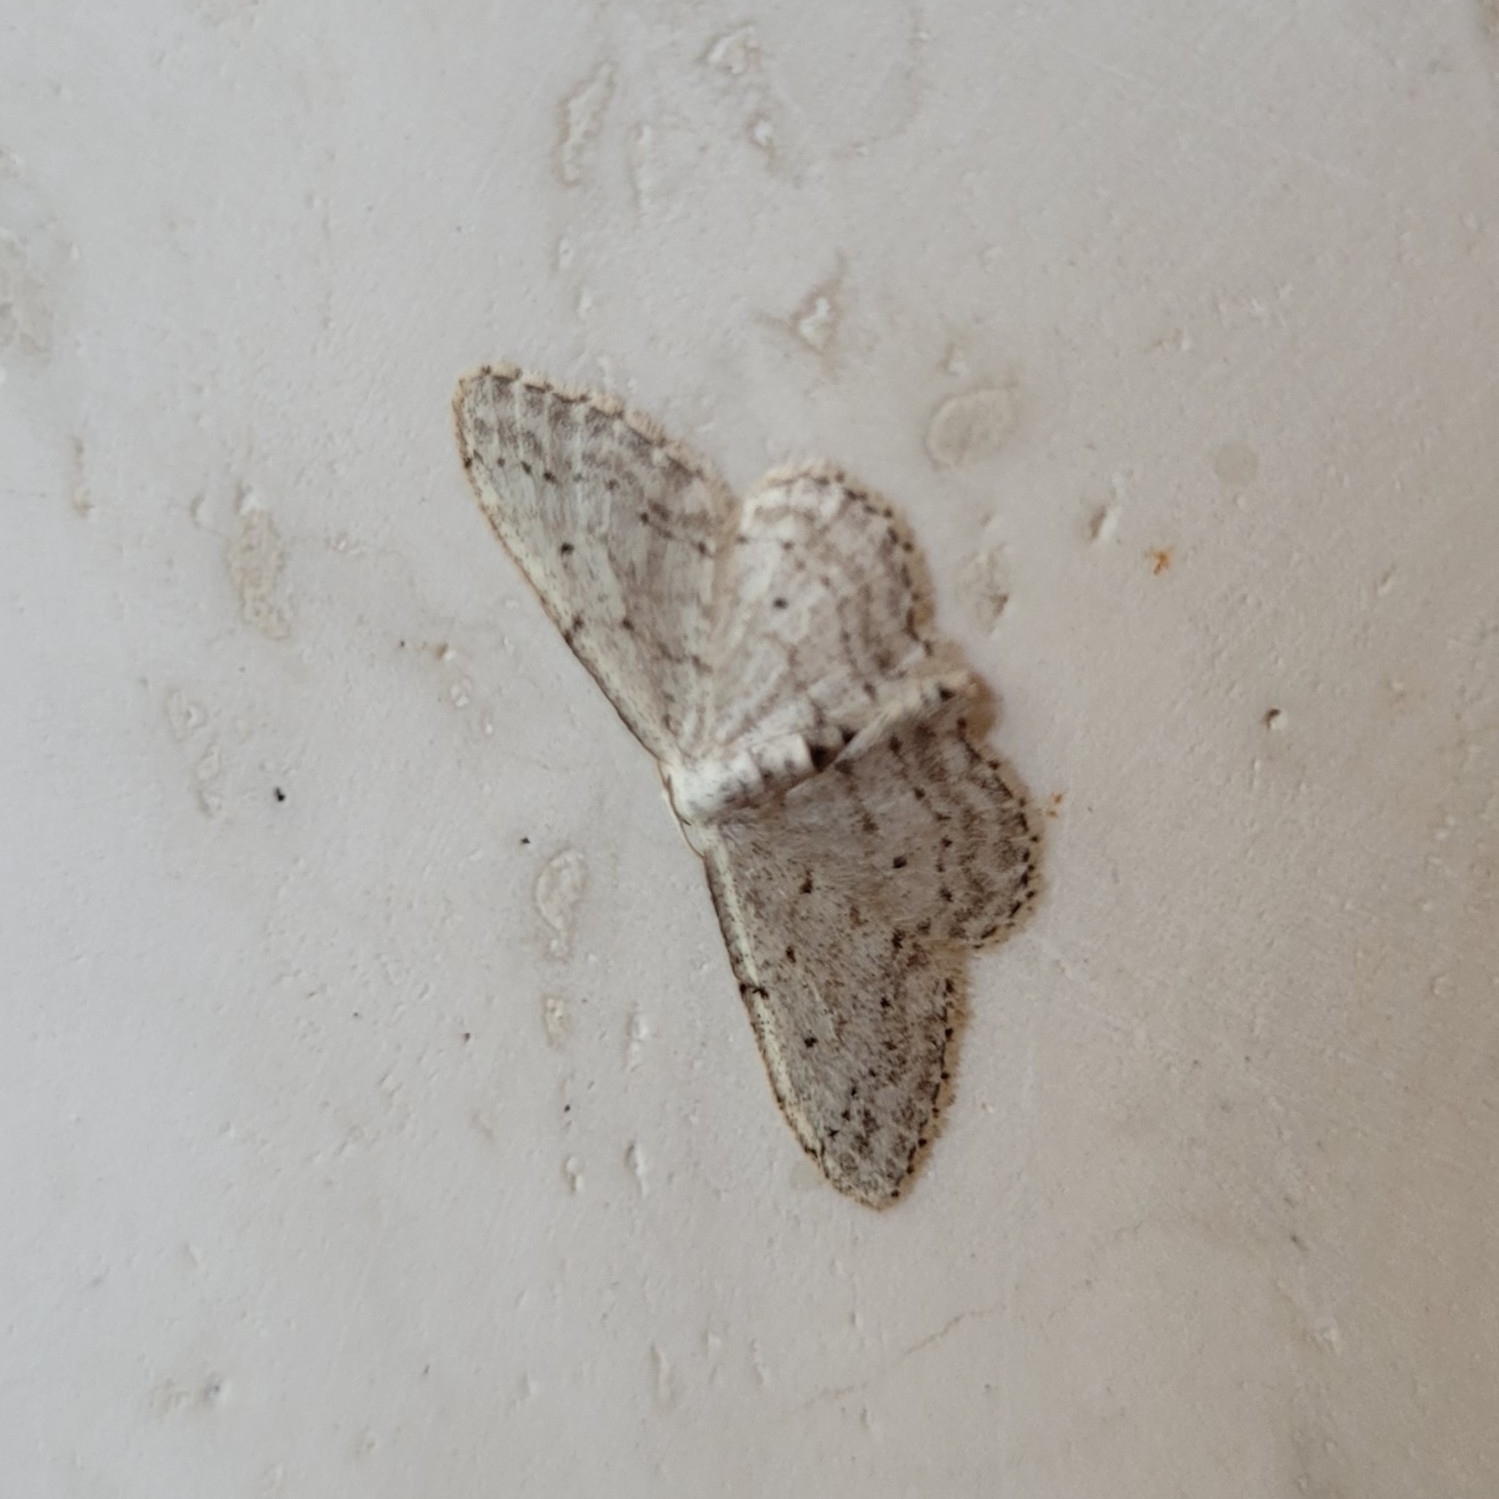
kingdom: Animalia
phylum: Arthropoda
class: Insecta
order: Lepidoptera
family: Geometridae
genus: Idaea
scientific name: Idaea seriata
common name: Small dusty wave
